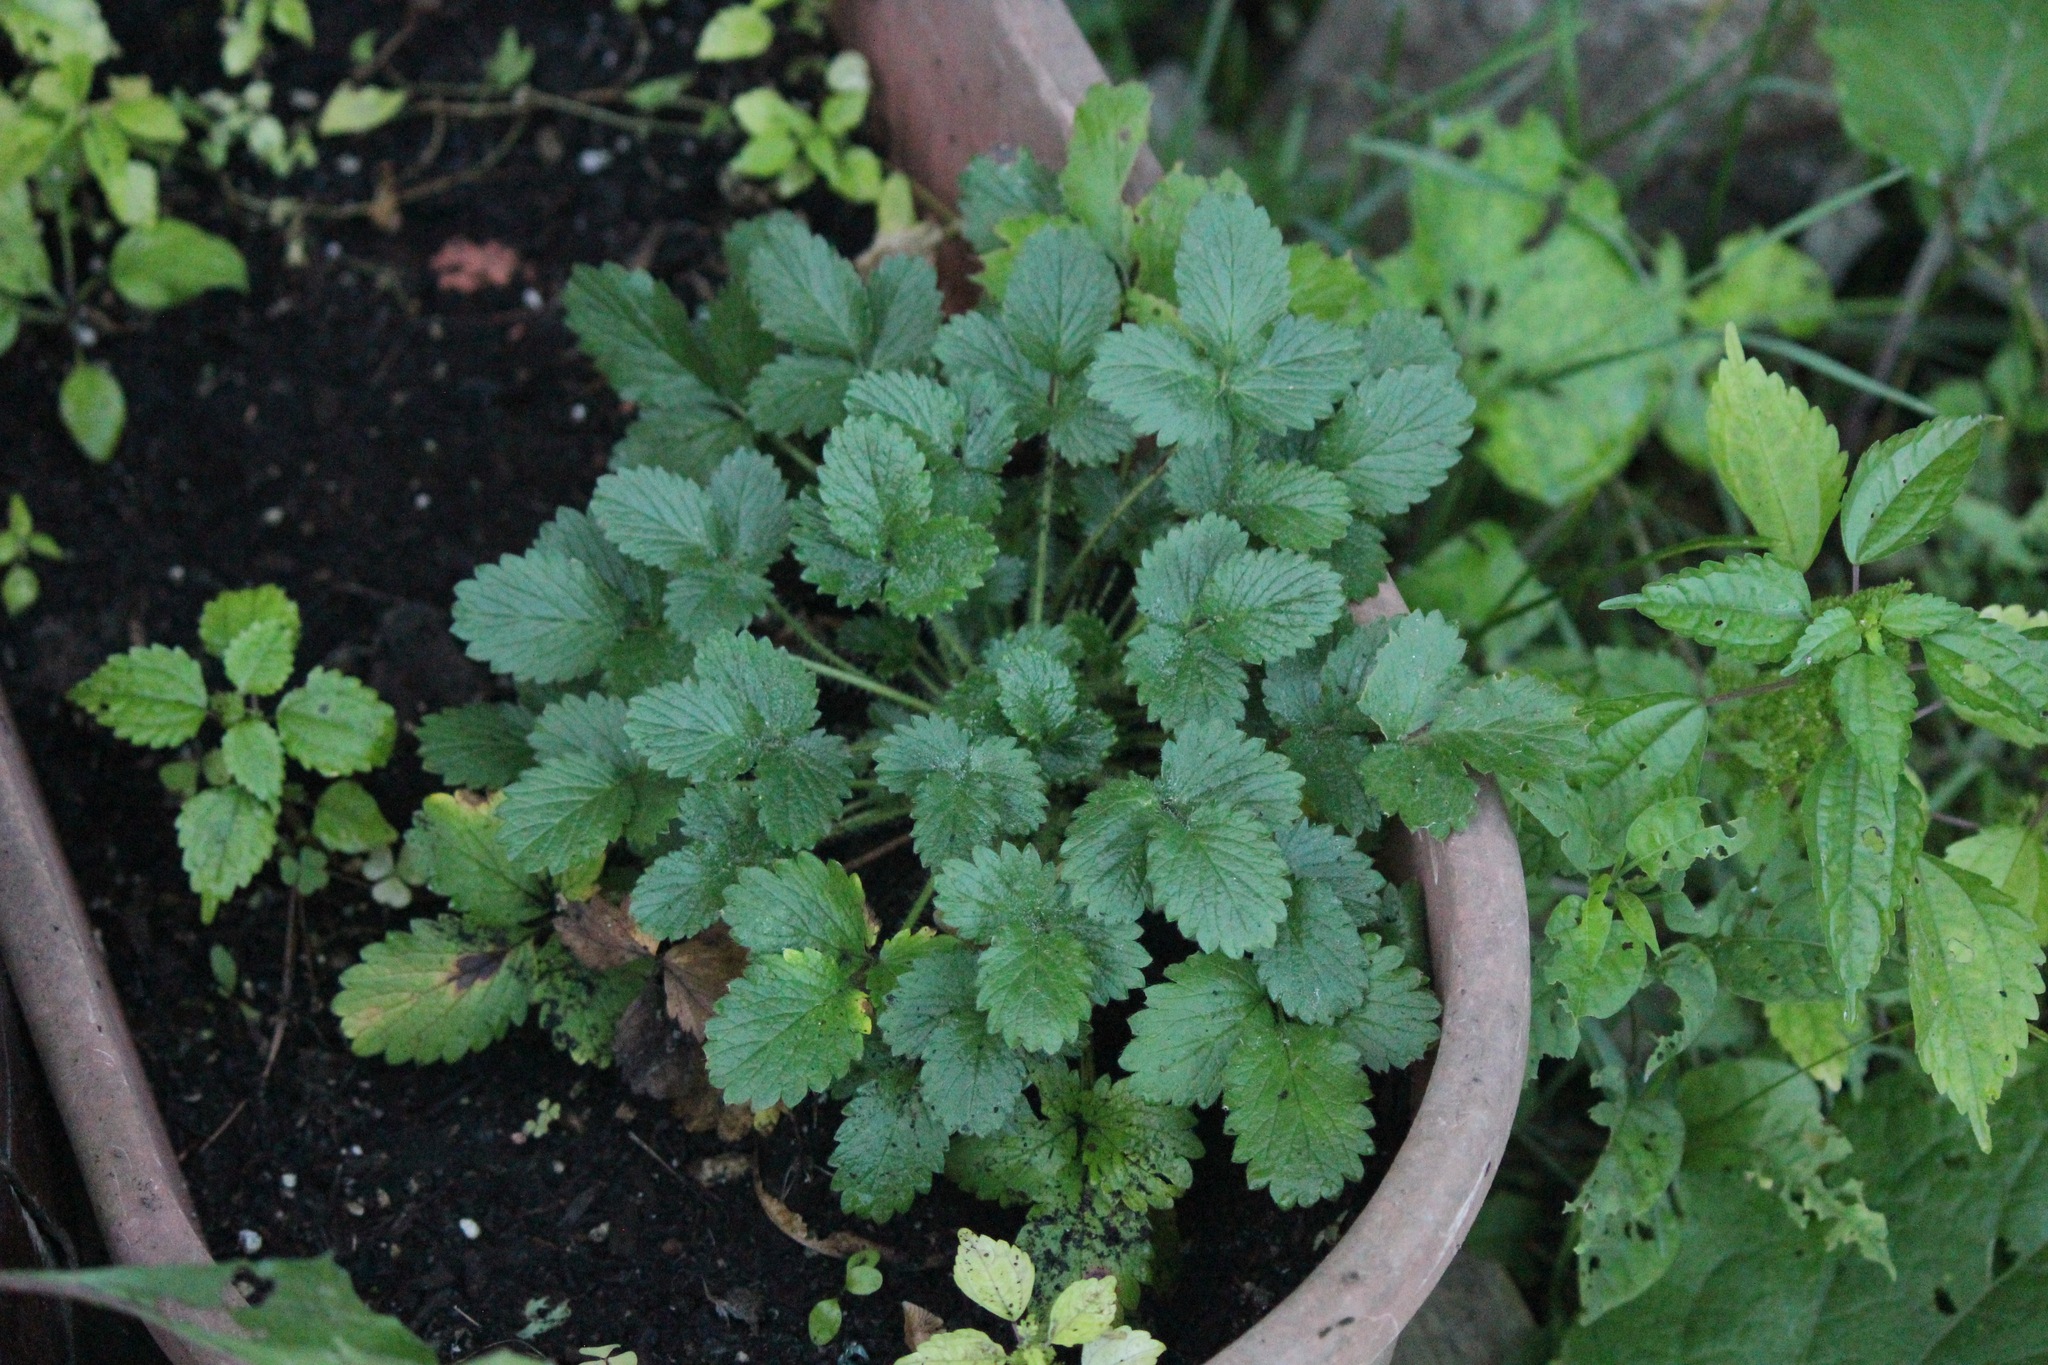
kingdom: Plantae
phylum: Tracheophyta
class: Magnoliopsida
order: Rosales
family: Rosaceae
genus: Potentilla
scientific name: Potentilla norvegica
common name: Ternate-leaved cinquefoil
